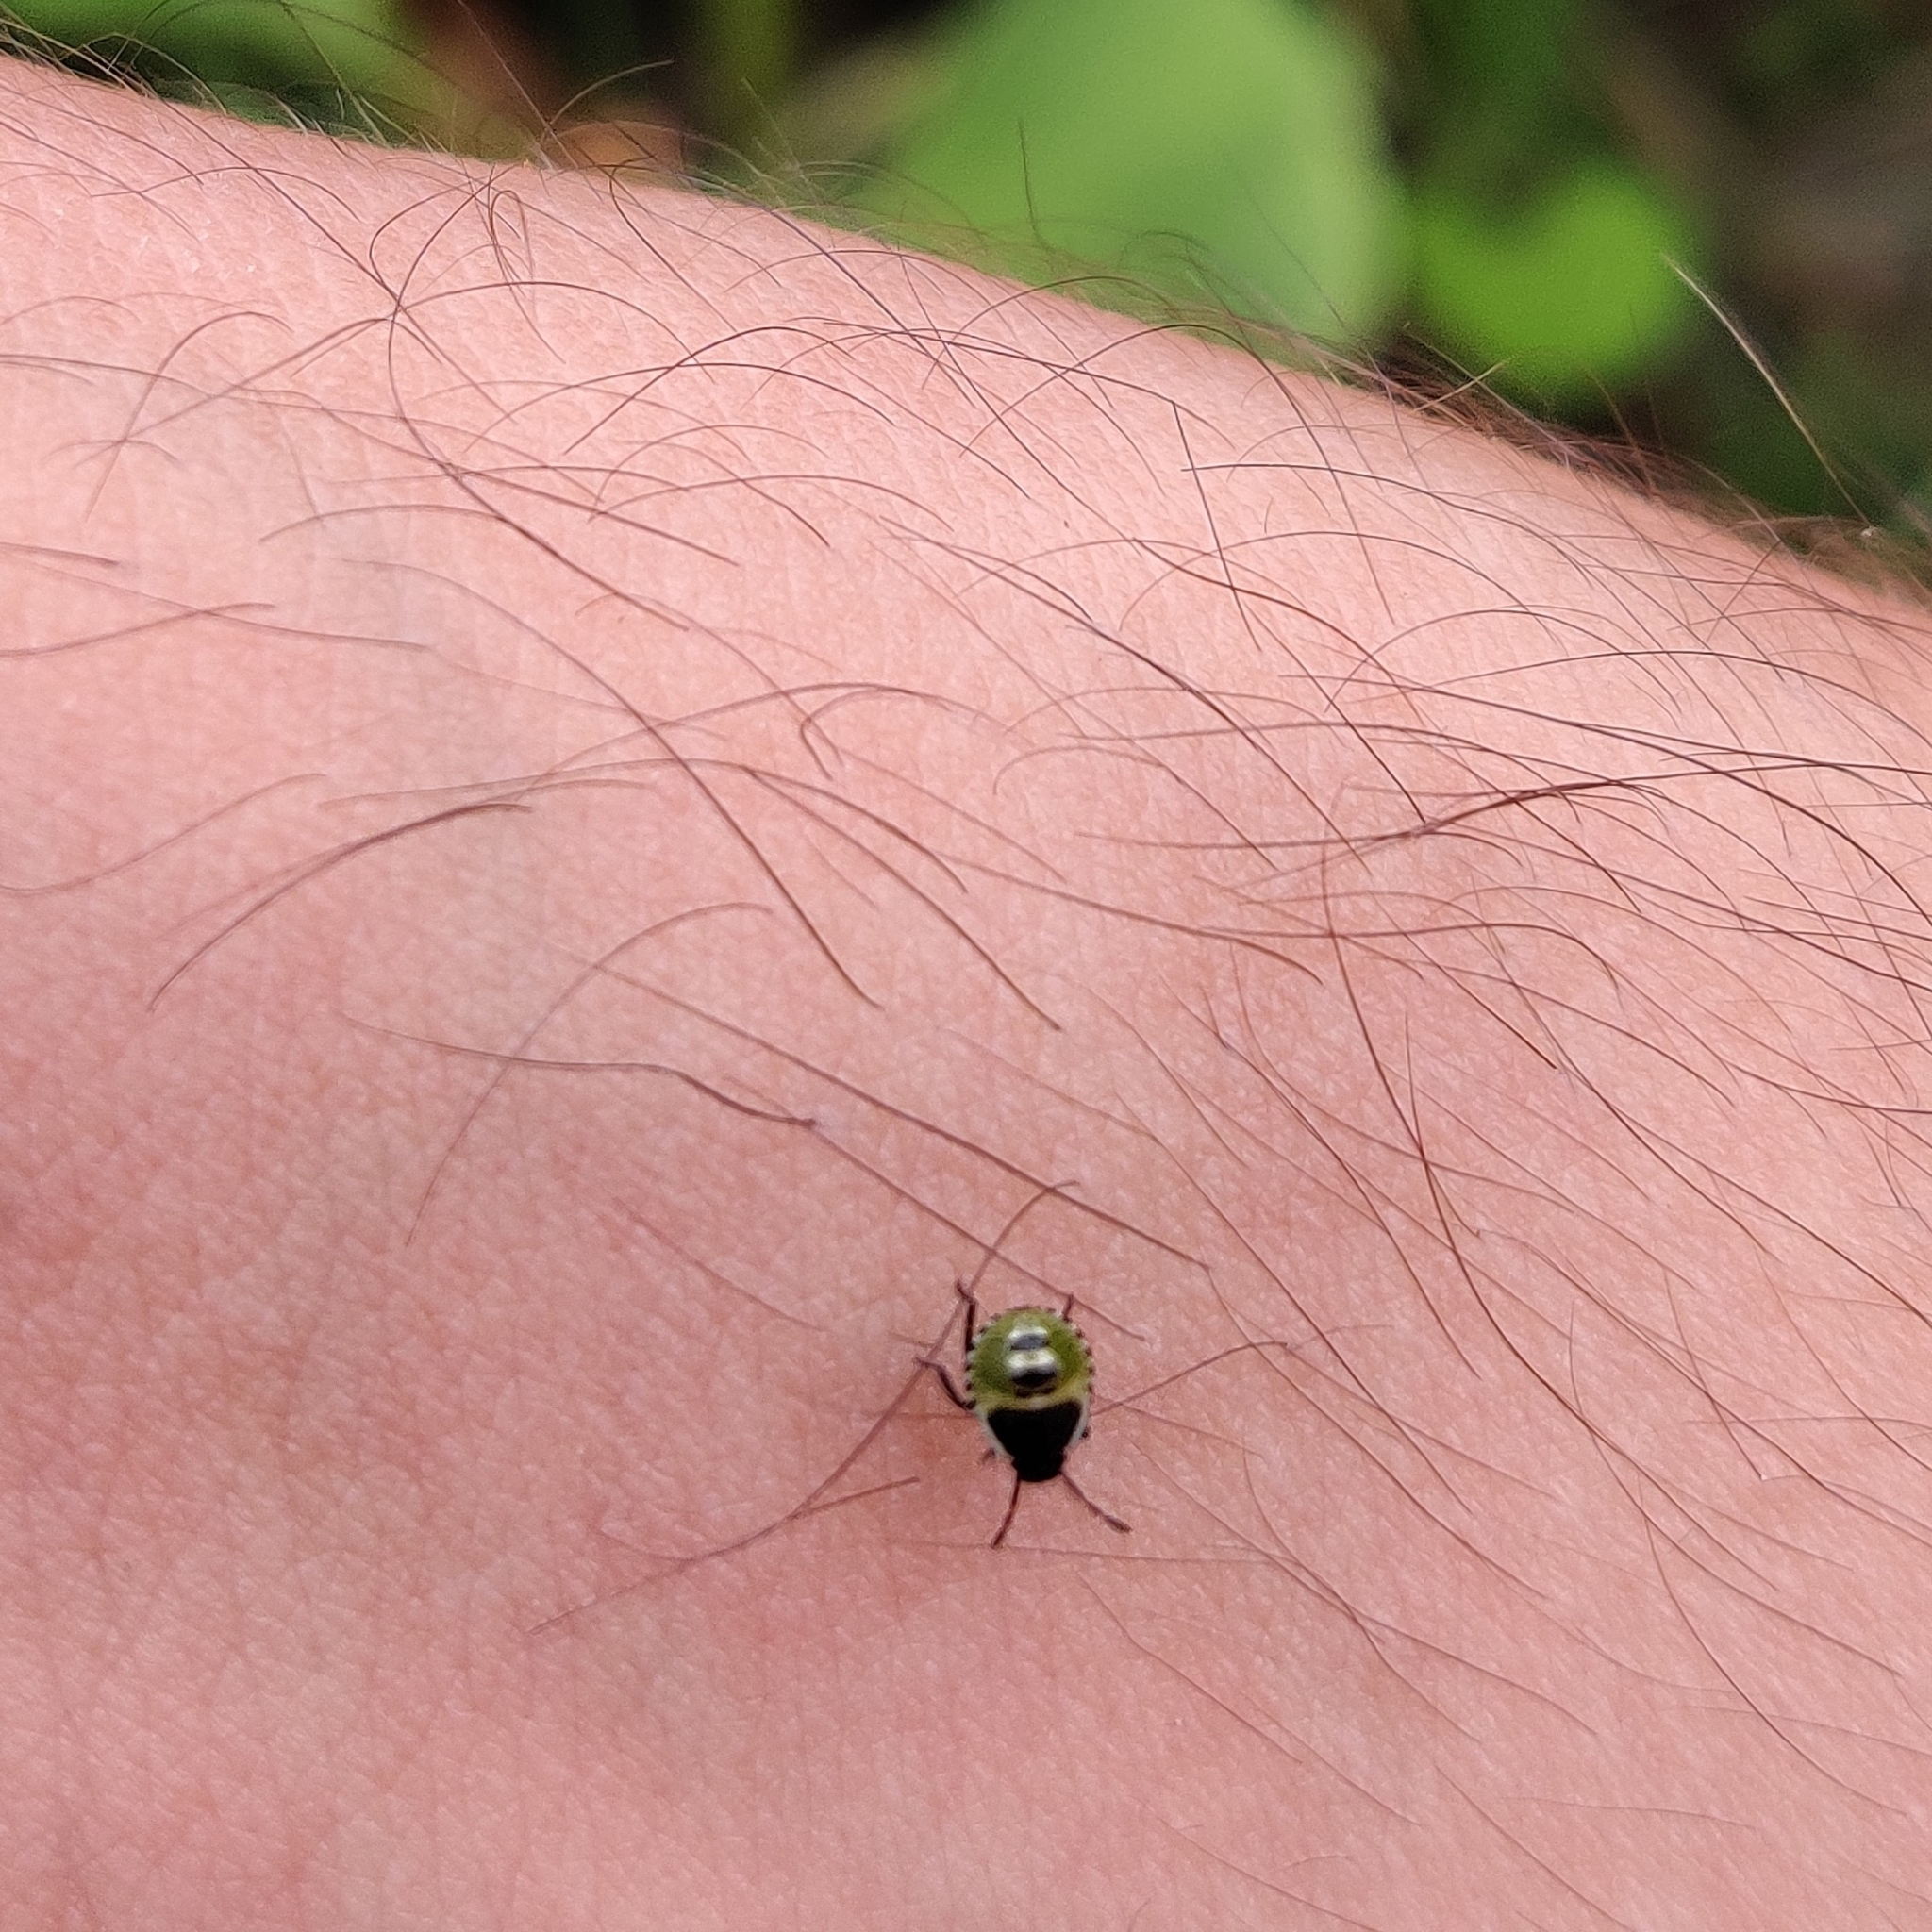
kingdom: Animalia
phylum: Arthropoda
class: Insecta
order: Hemiptera
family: Pentatomidae
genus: Palomena
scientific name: Palomena prasina
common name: Green shieldbug
